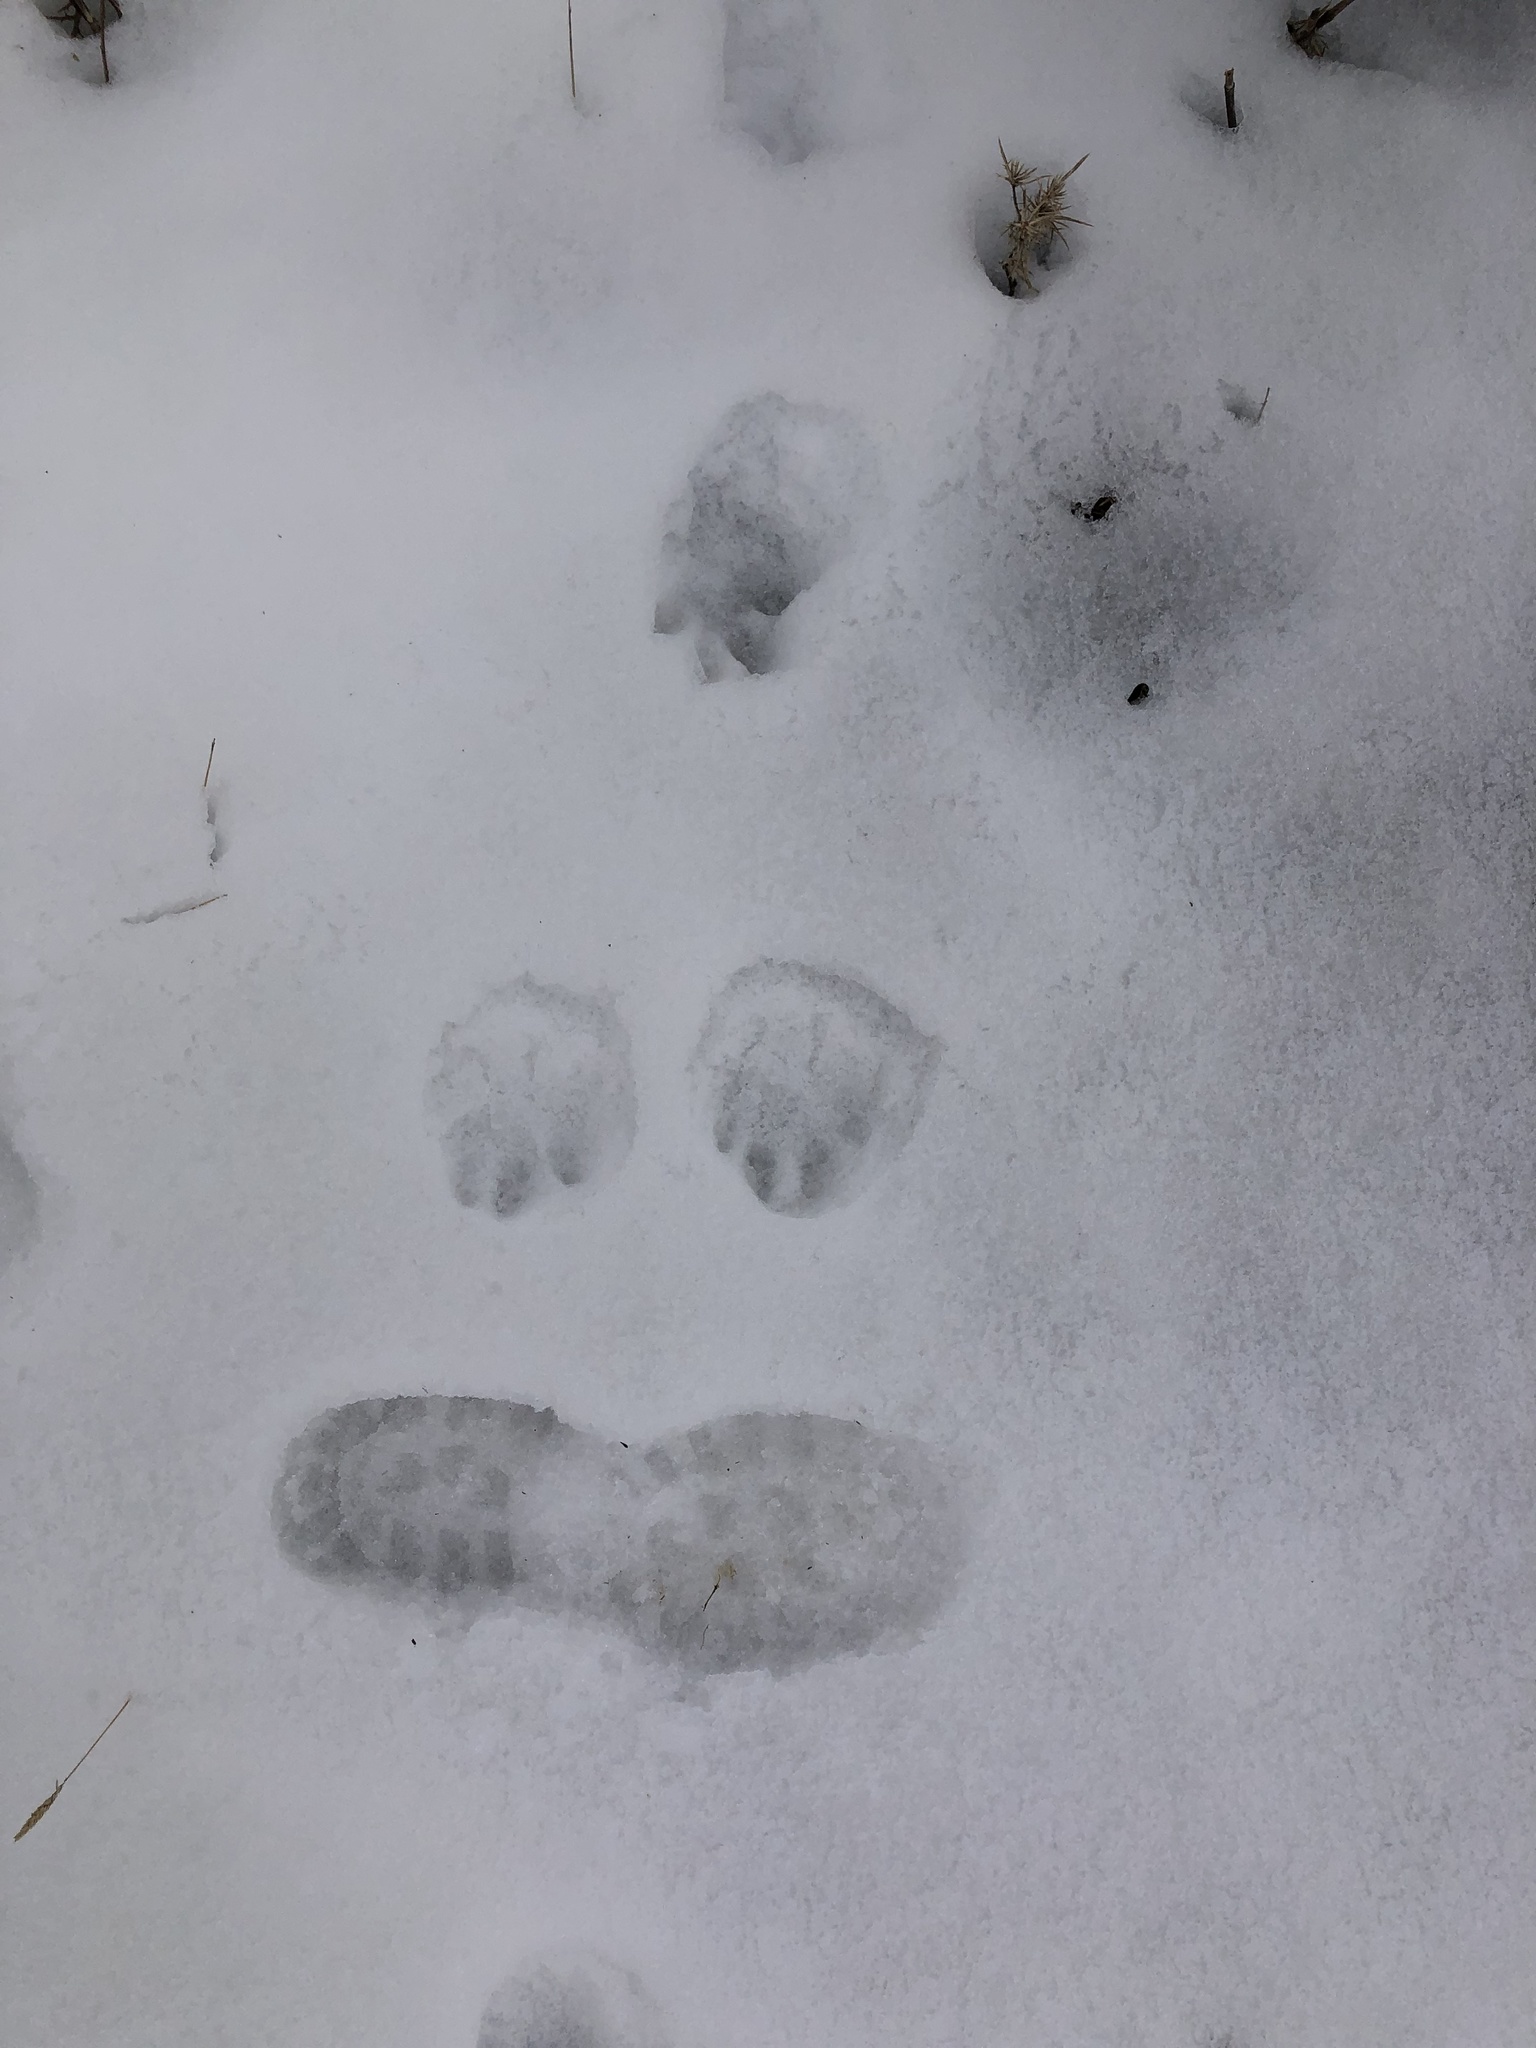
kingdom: Animalia
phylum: Chordata
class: Mammalia
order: Carnivora
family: Canidae
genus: Canis
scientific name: Canis
